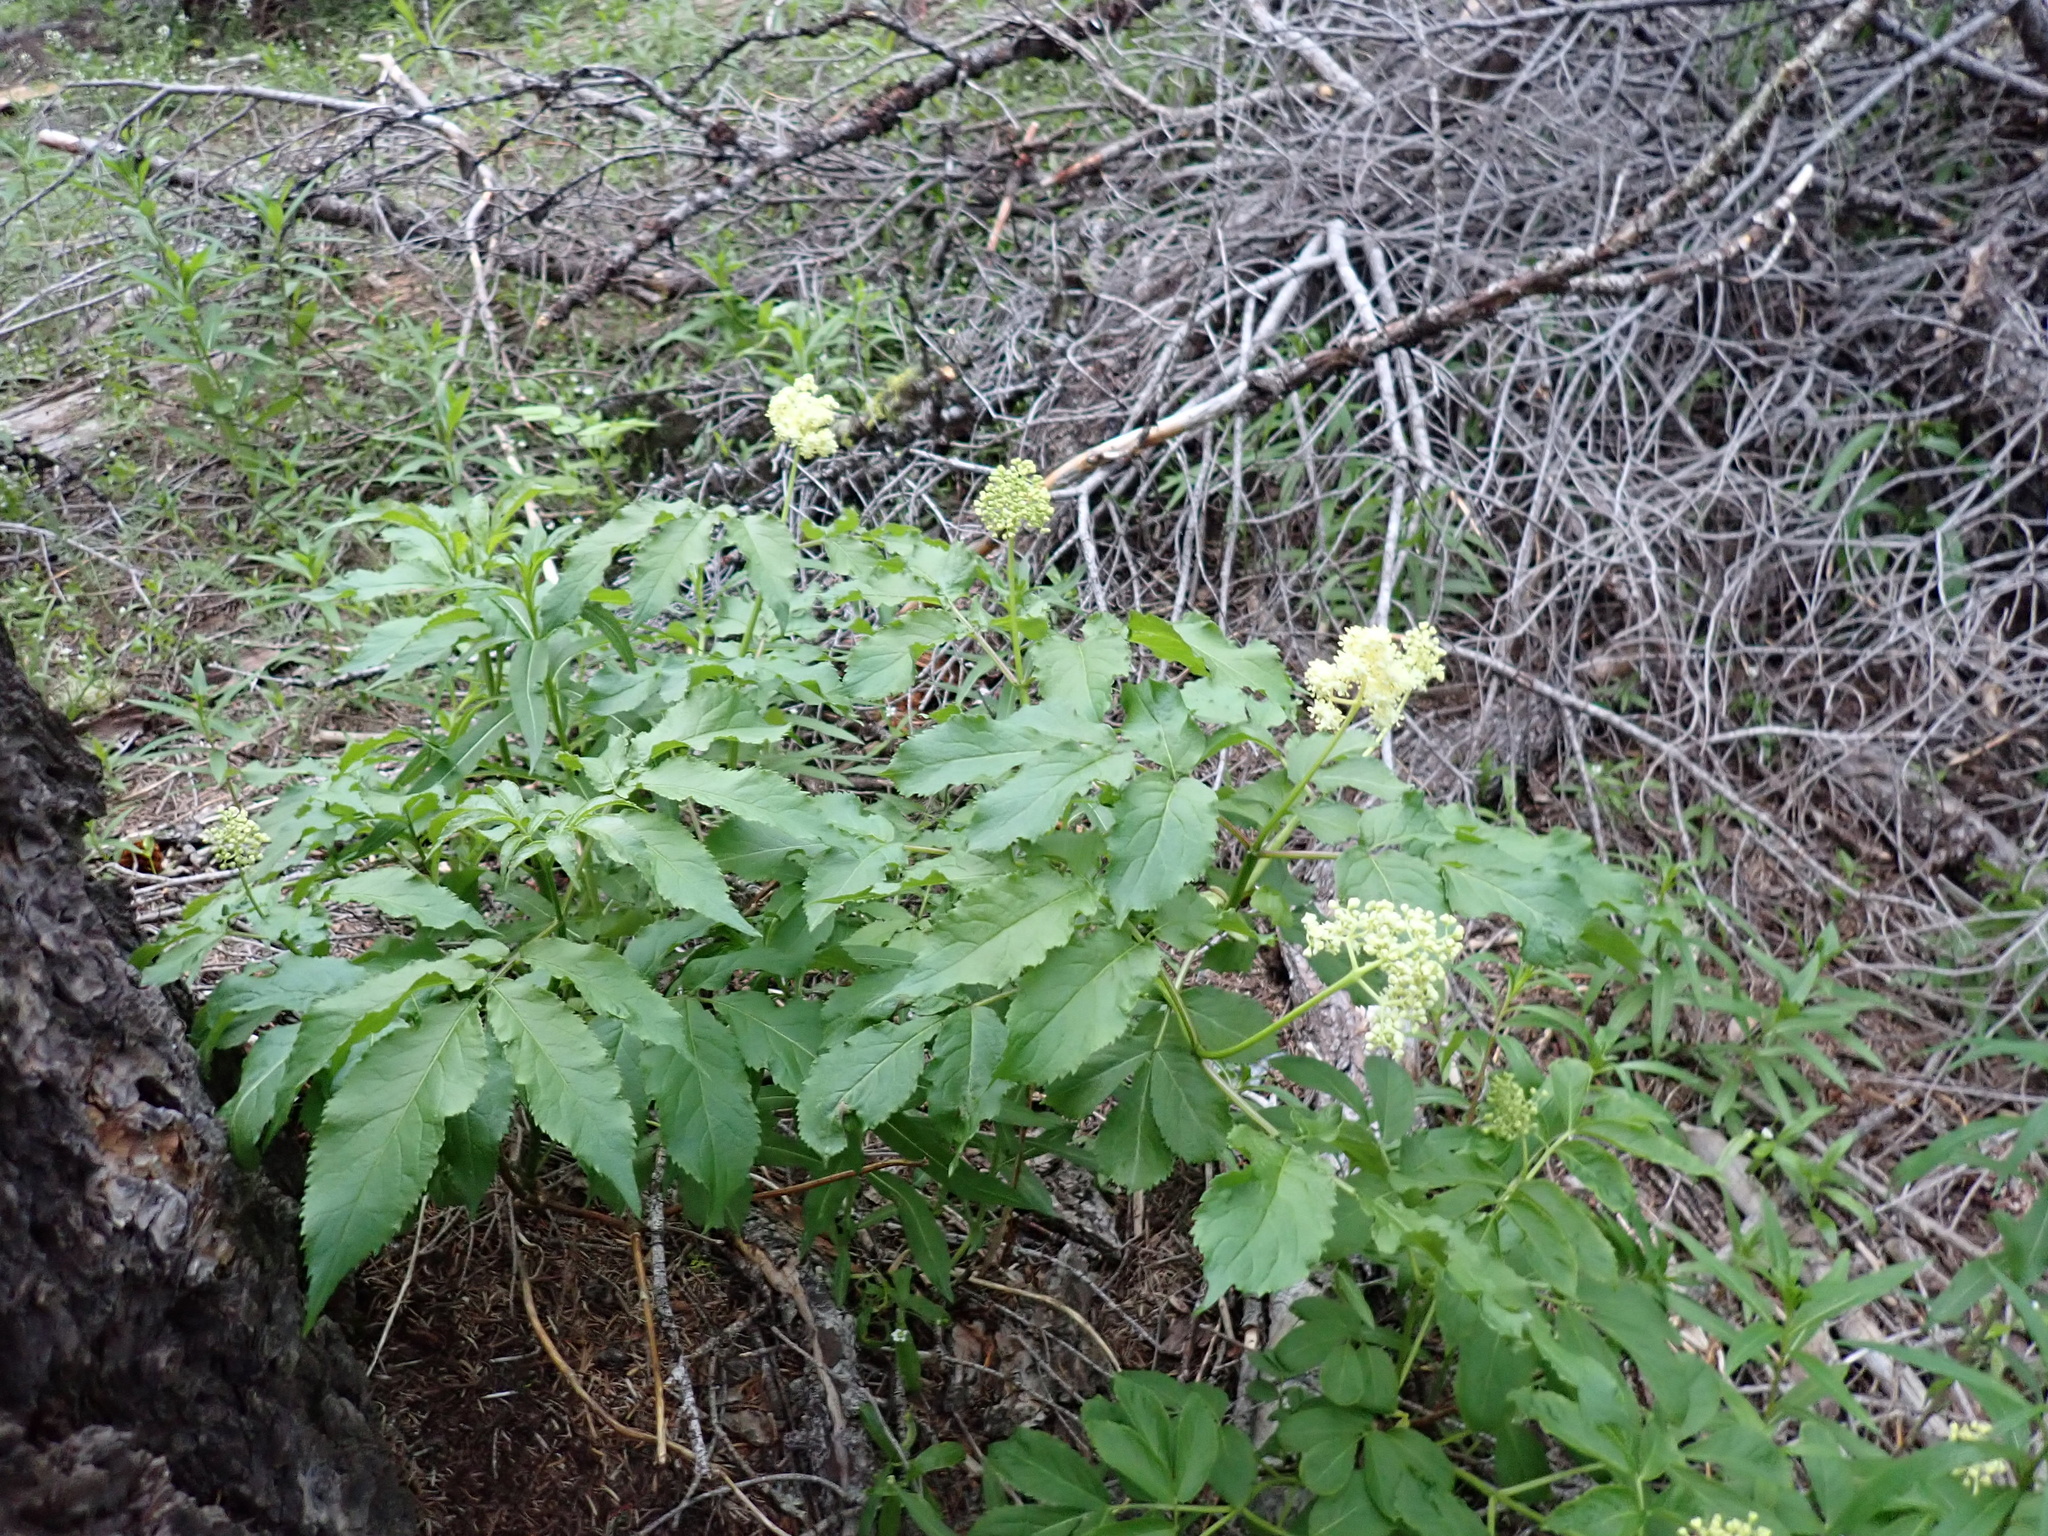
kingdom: Plantae
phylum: Tracheophyta
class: Magnoliopsida
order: Dipsacales
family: Viburnaceae
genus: Sambucus
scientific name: Sambucus racemosa
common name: Red-berried elder
